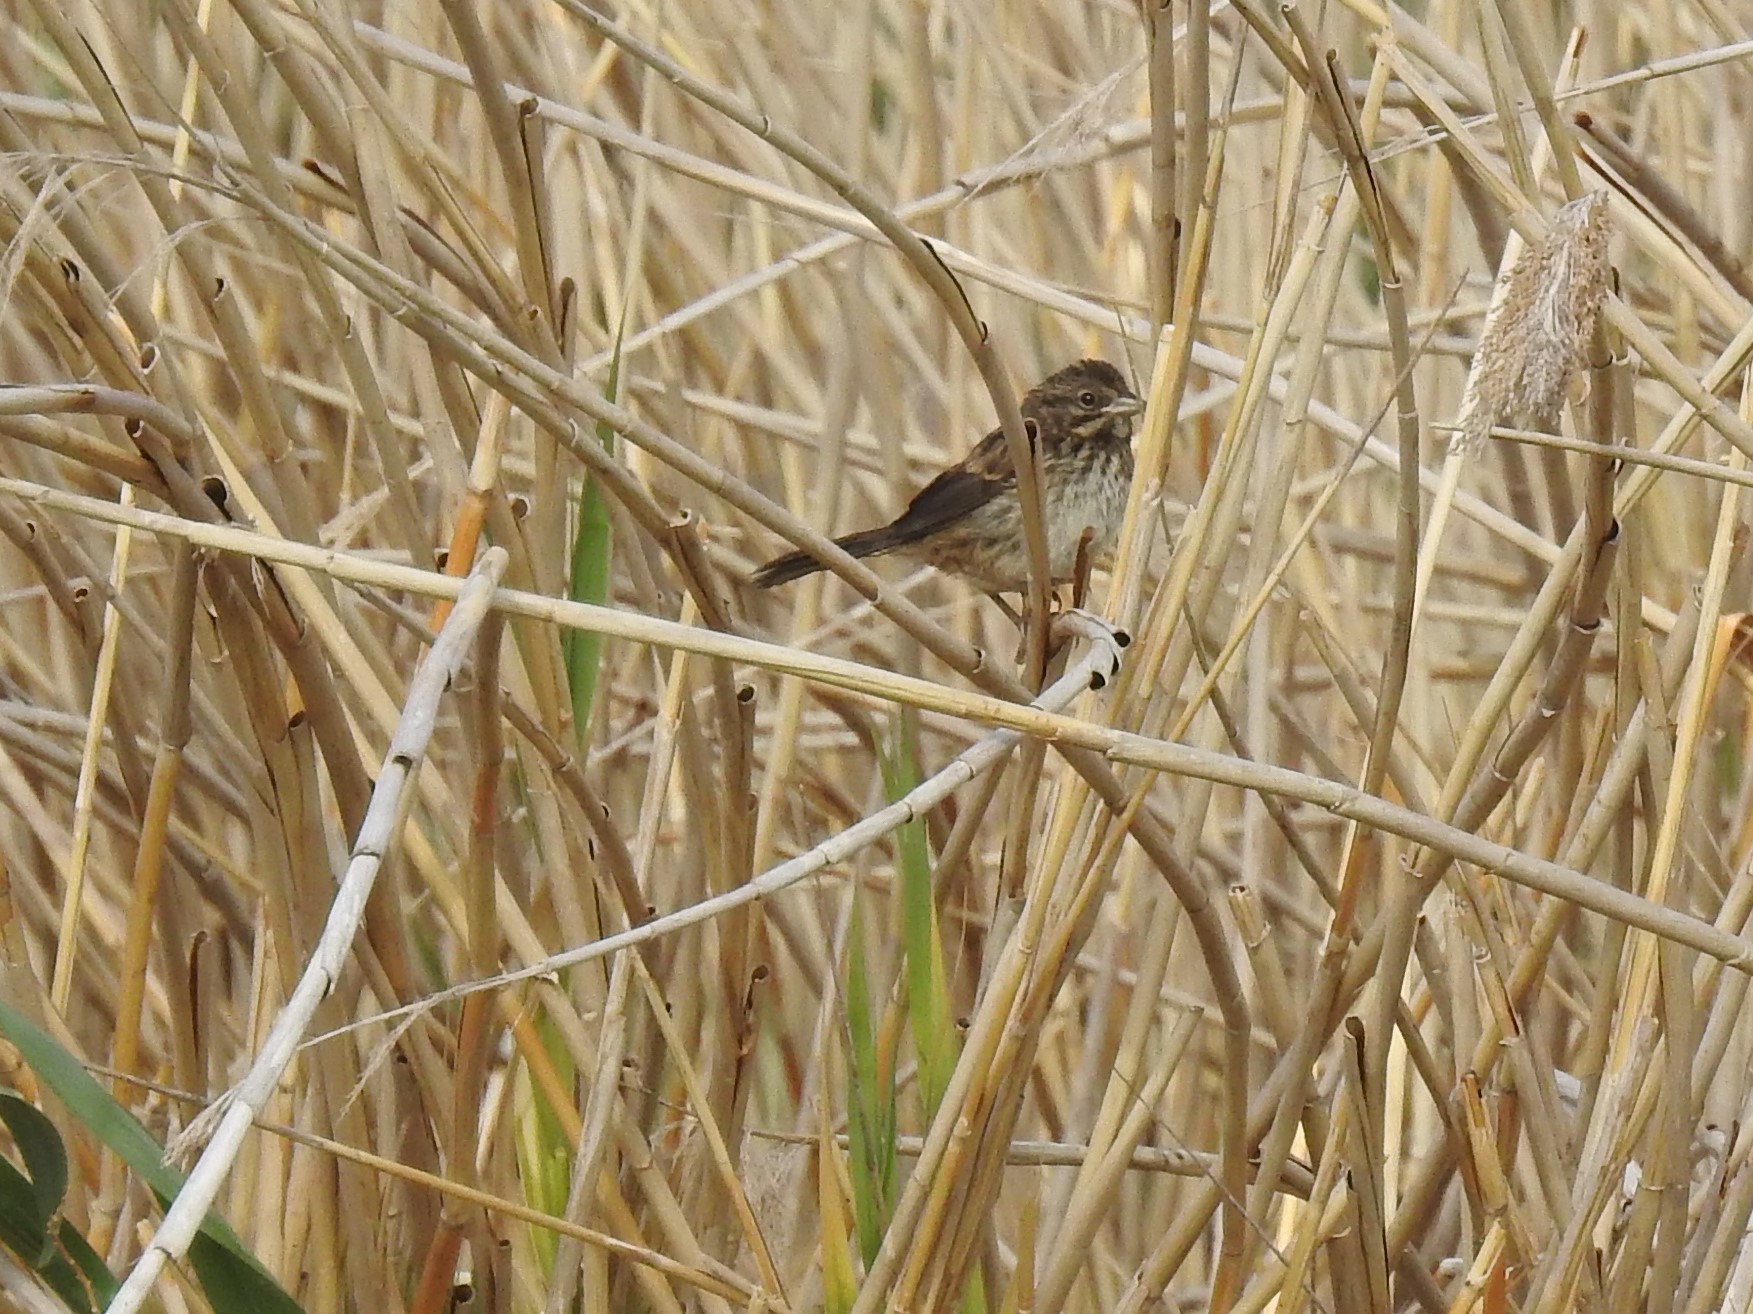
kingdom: Animalia
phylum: Chordata
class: Aves
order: Passeriformes
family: Passerellidae
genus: Melospiza
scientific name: Melospiza melodia
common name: Song sparrow
